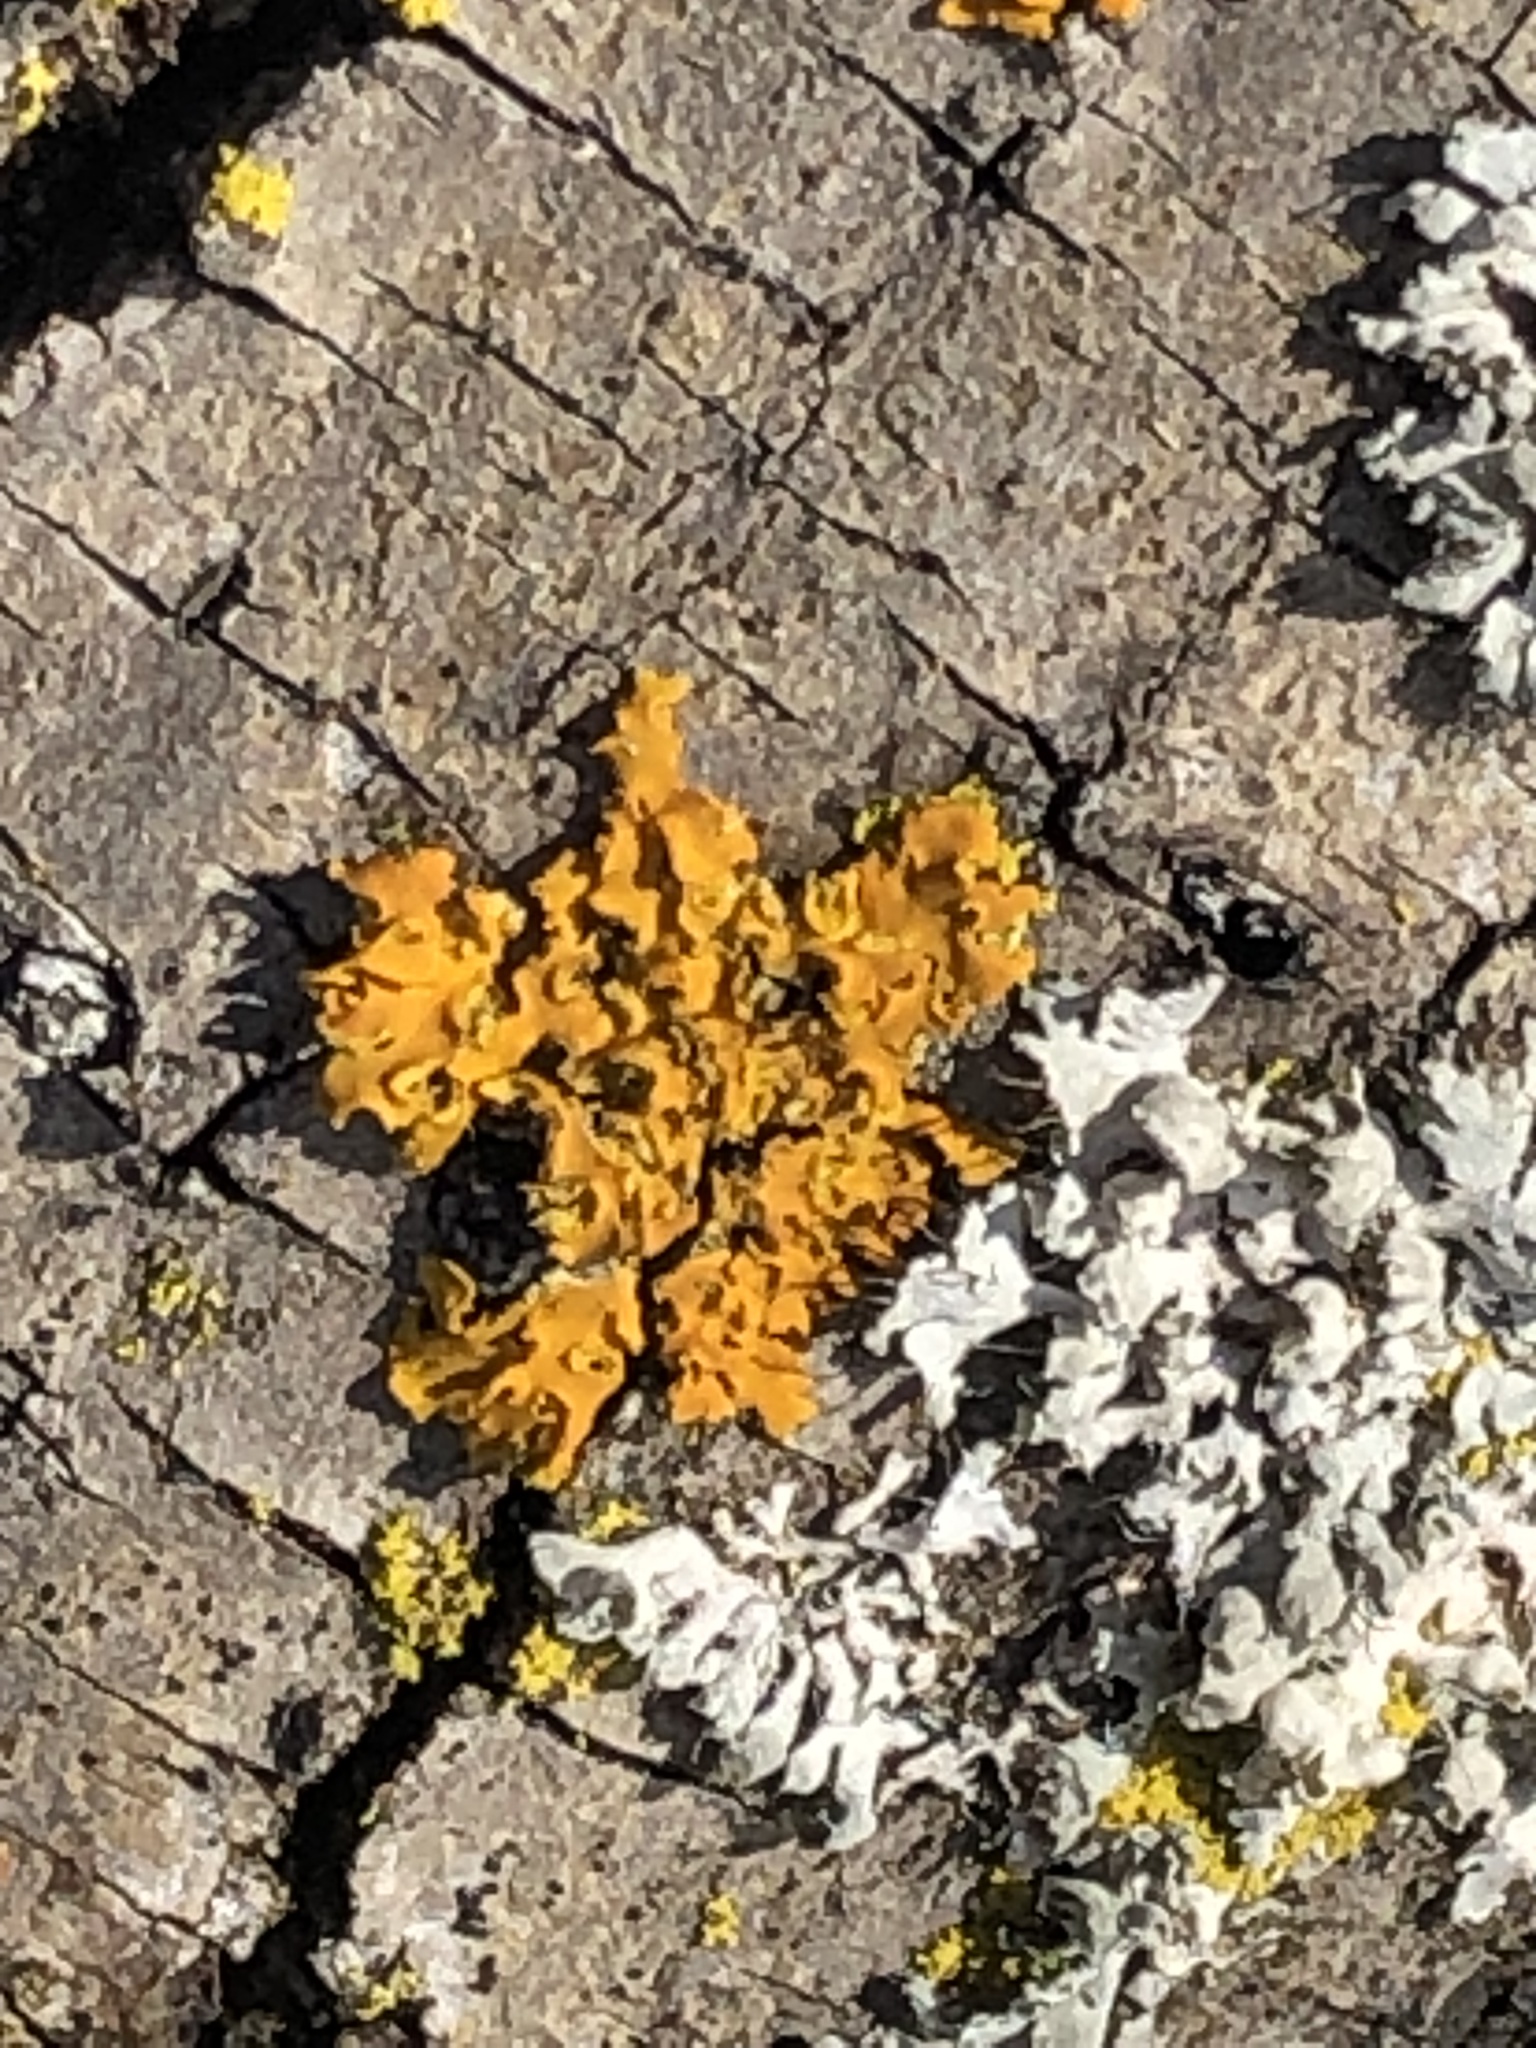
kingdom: Fungi
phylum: Ascomycota
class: Lecanoromycetes
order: Teloschistales
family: Teloschistaceae
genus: Oxneria
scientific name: Oxneria fallax
